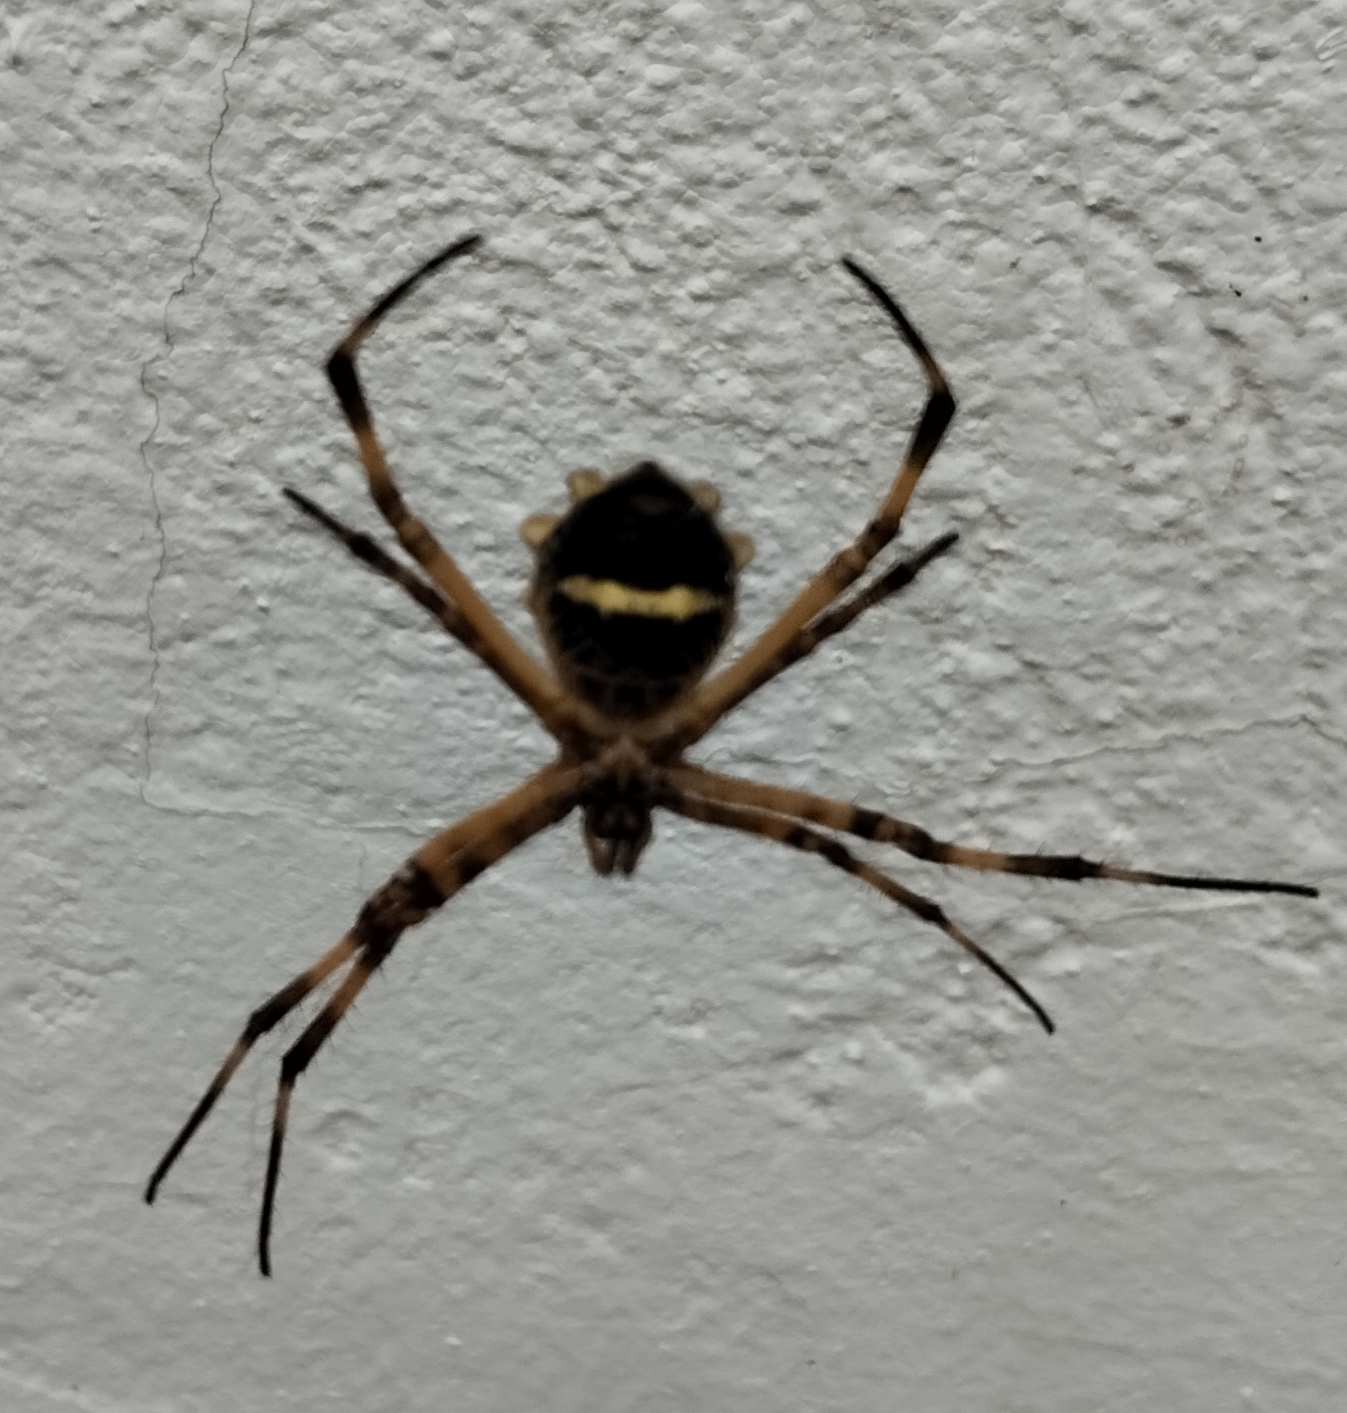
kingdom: Animalia
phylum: Arthropoda
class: Arachnida
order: Araneae
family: Araneidae
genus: Argiope
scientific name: Argiope argentata
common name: Orb weavers
